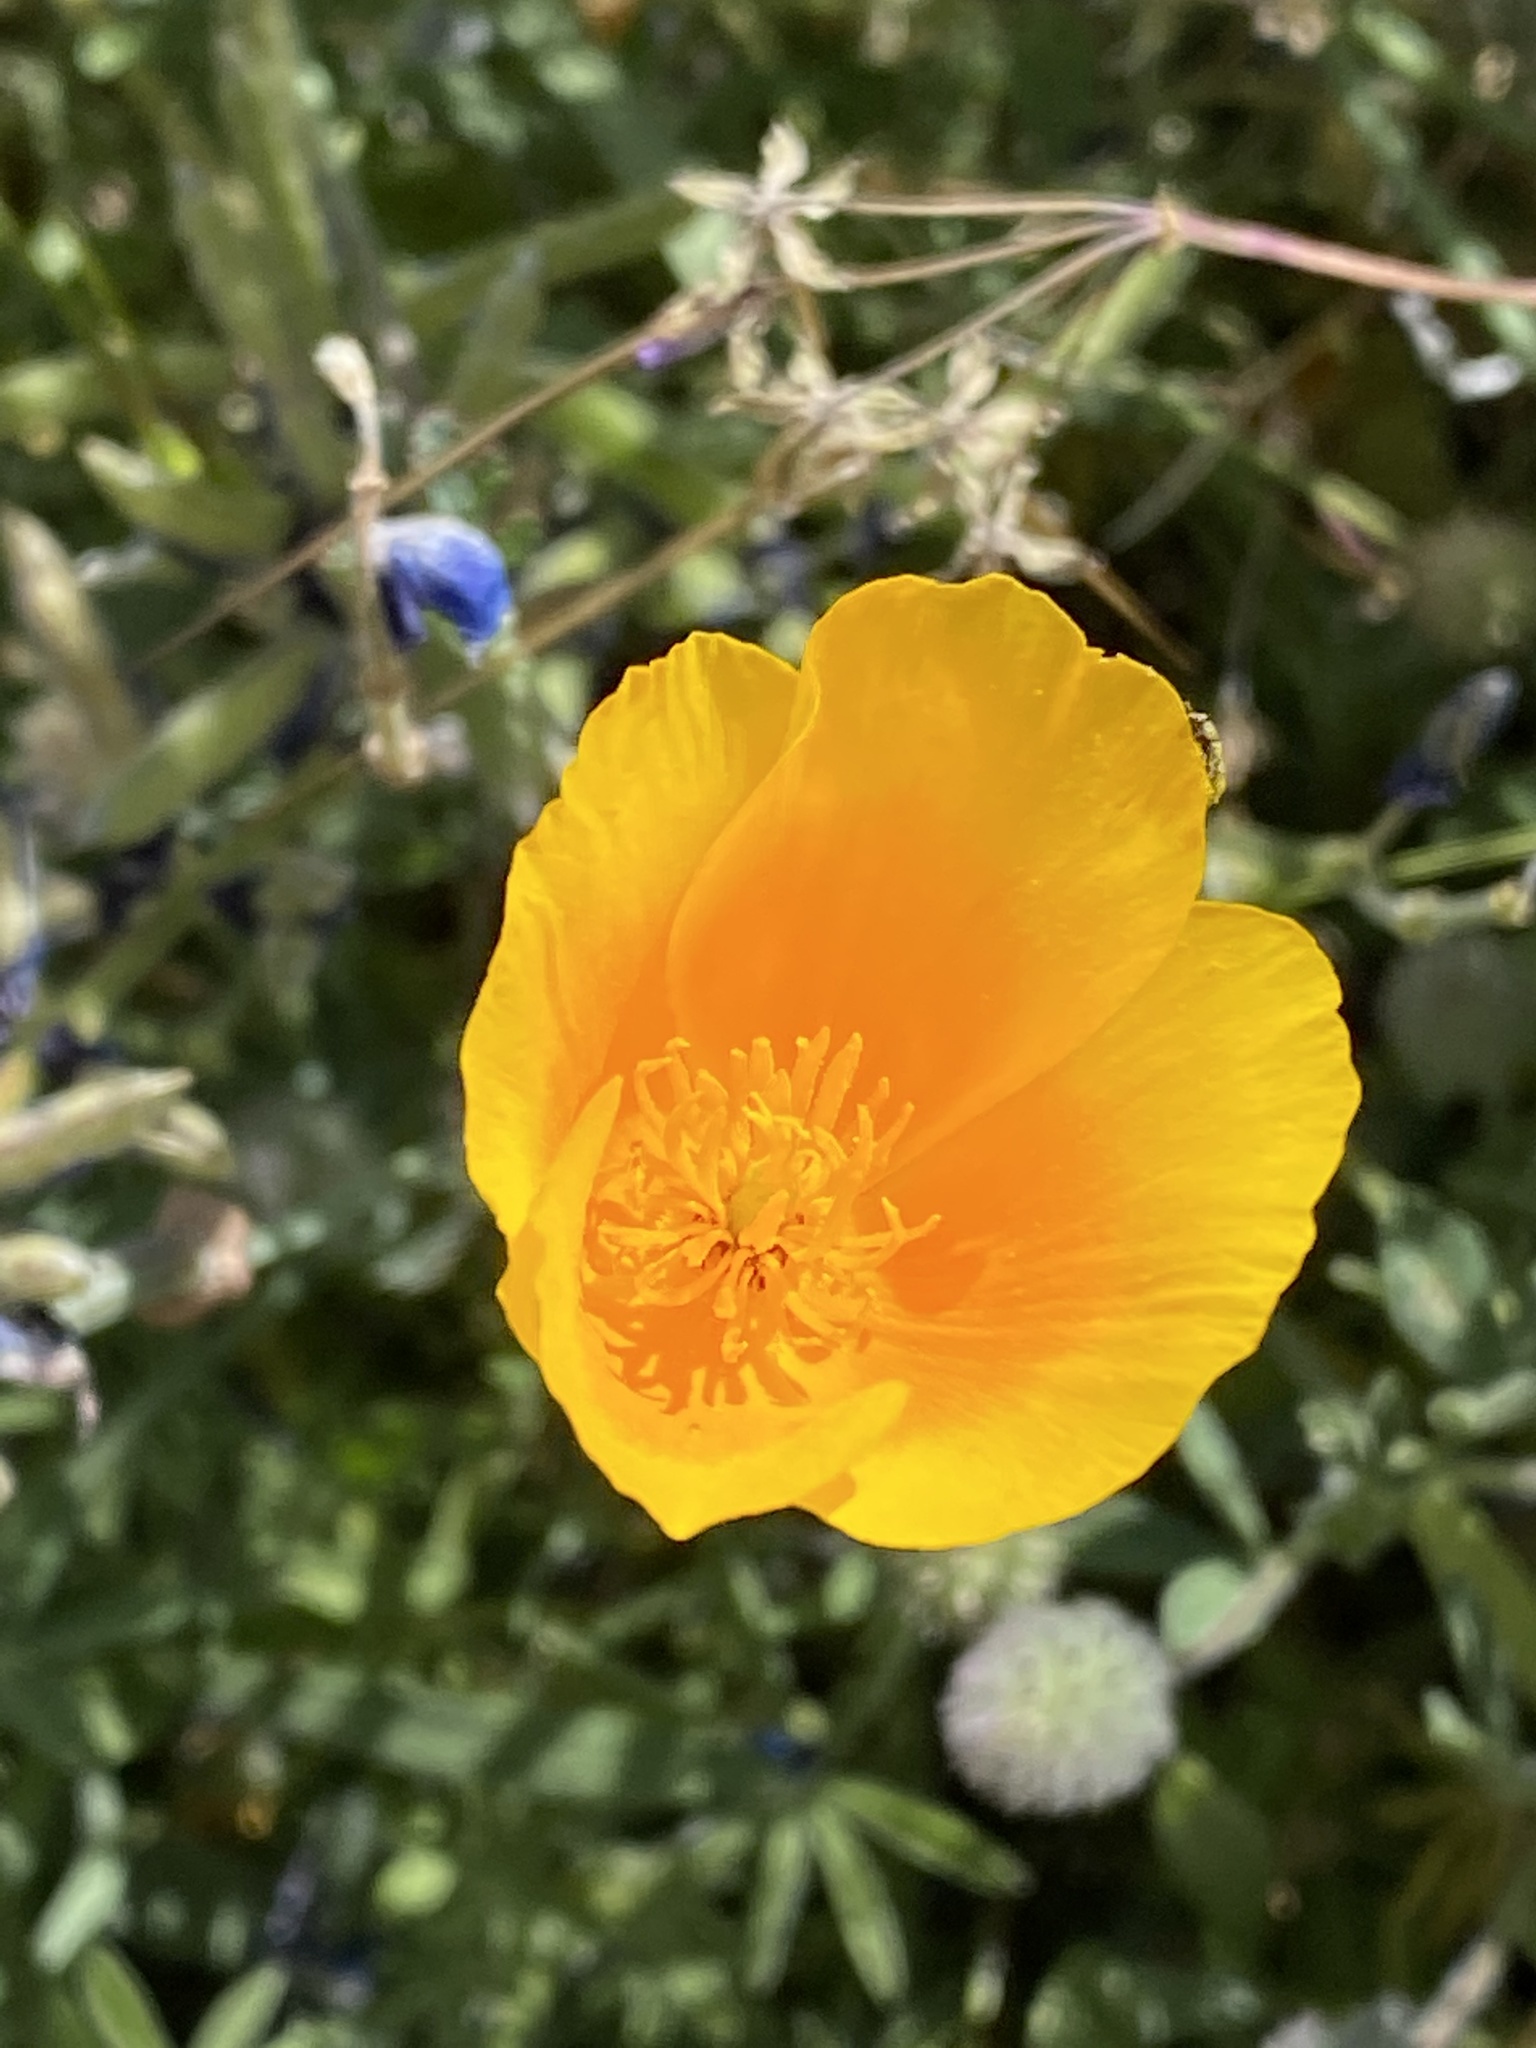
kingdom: Plantae
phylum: Tracheophyta
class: Magnoliopsida
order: Ranunculales
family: Papaveraceae
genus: Eschscholzia
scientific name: Eschscholzia californica
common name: California poppy
